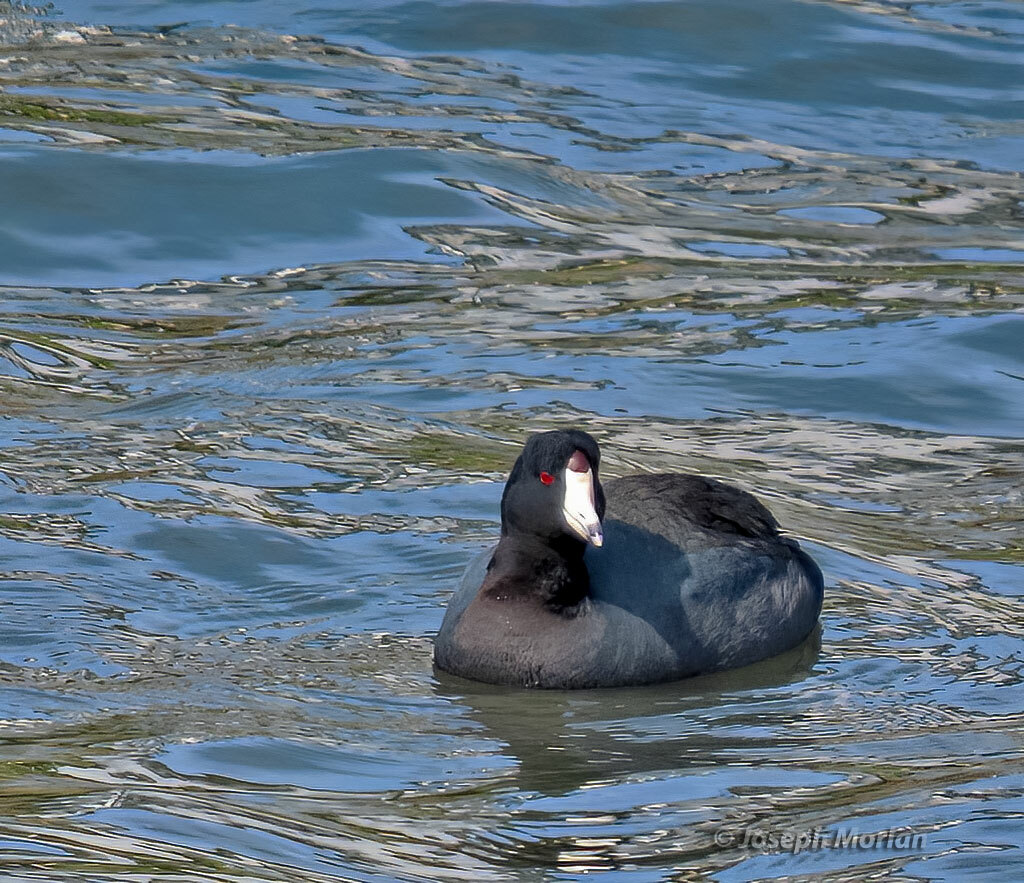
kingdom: Animalia
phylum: Chordata
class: Aves
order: Gruiformes
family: Rallidae
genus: Fulica
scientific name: Fulica americana
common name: American coot
